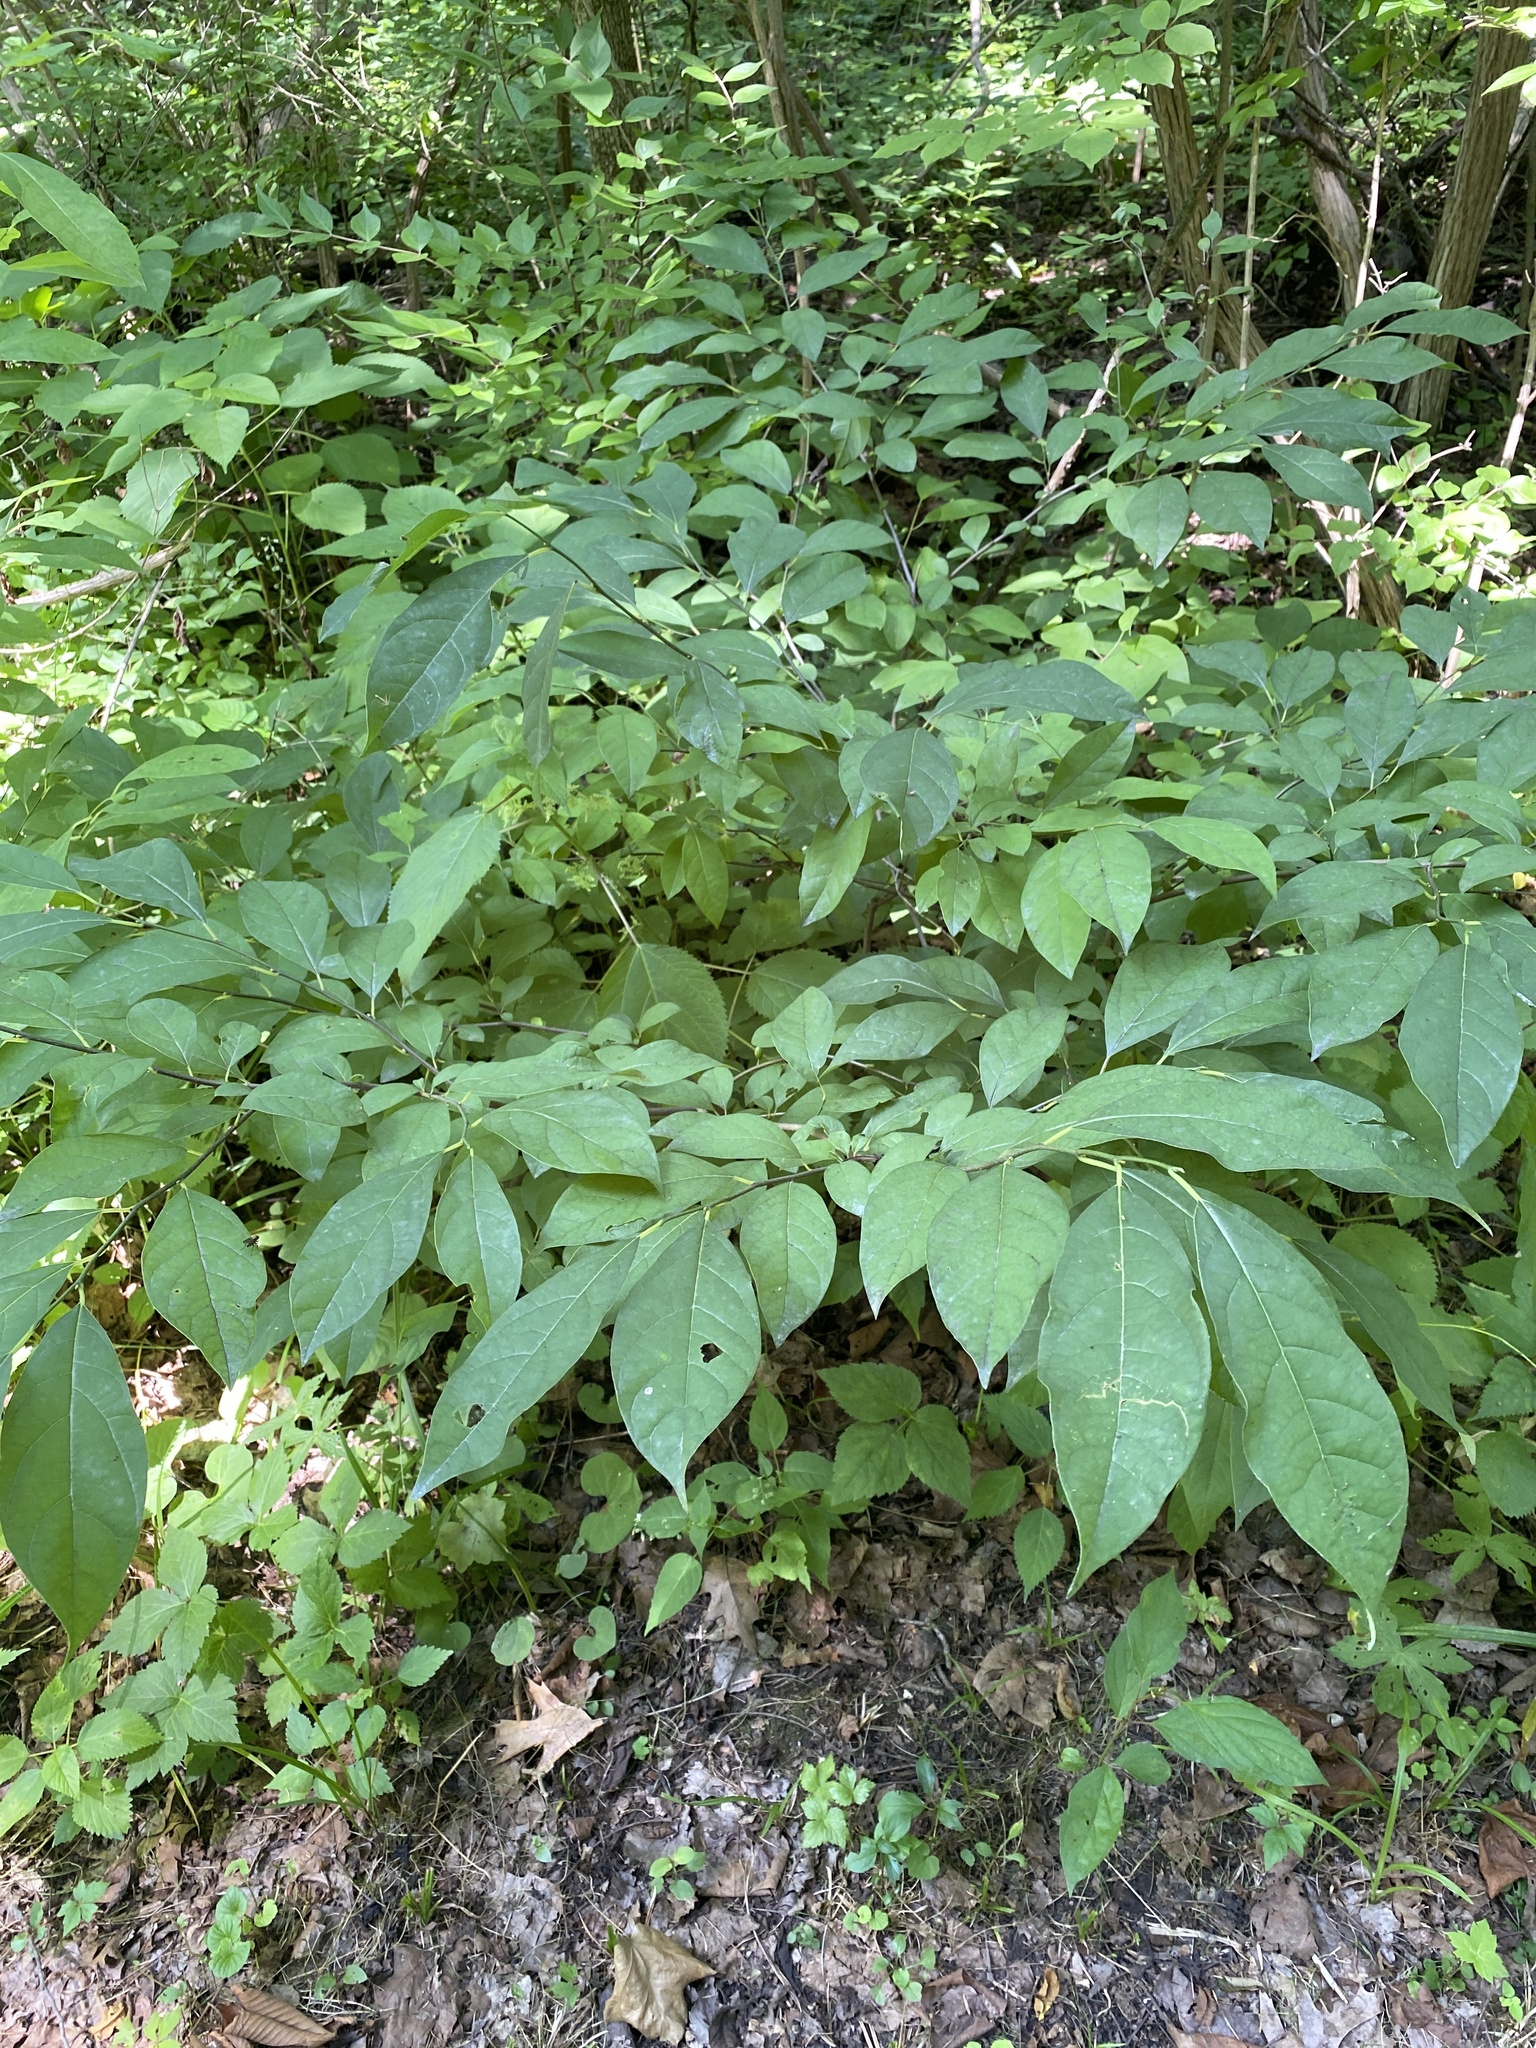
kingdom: Plantae
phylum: Tracheophyta
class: Magnoliopsida
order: Laurales
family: Lauraceae
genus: Lindera
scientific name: Lindera benzoin
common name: Spicebush
